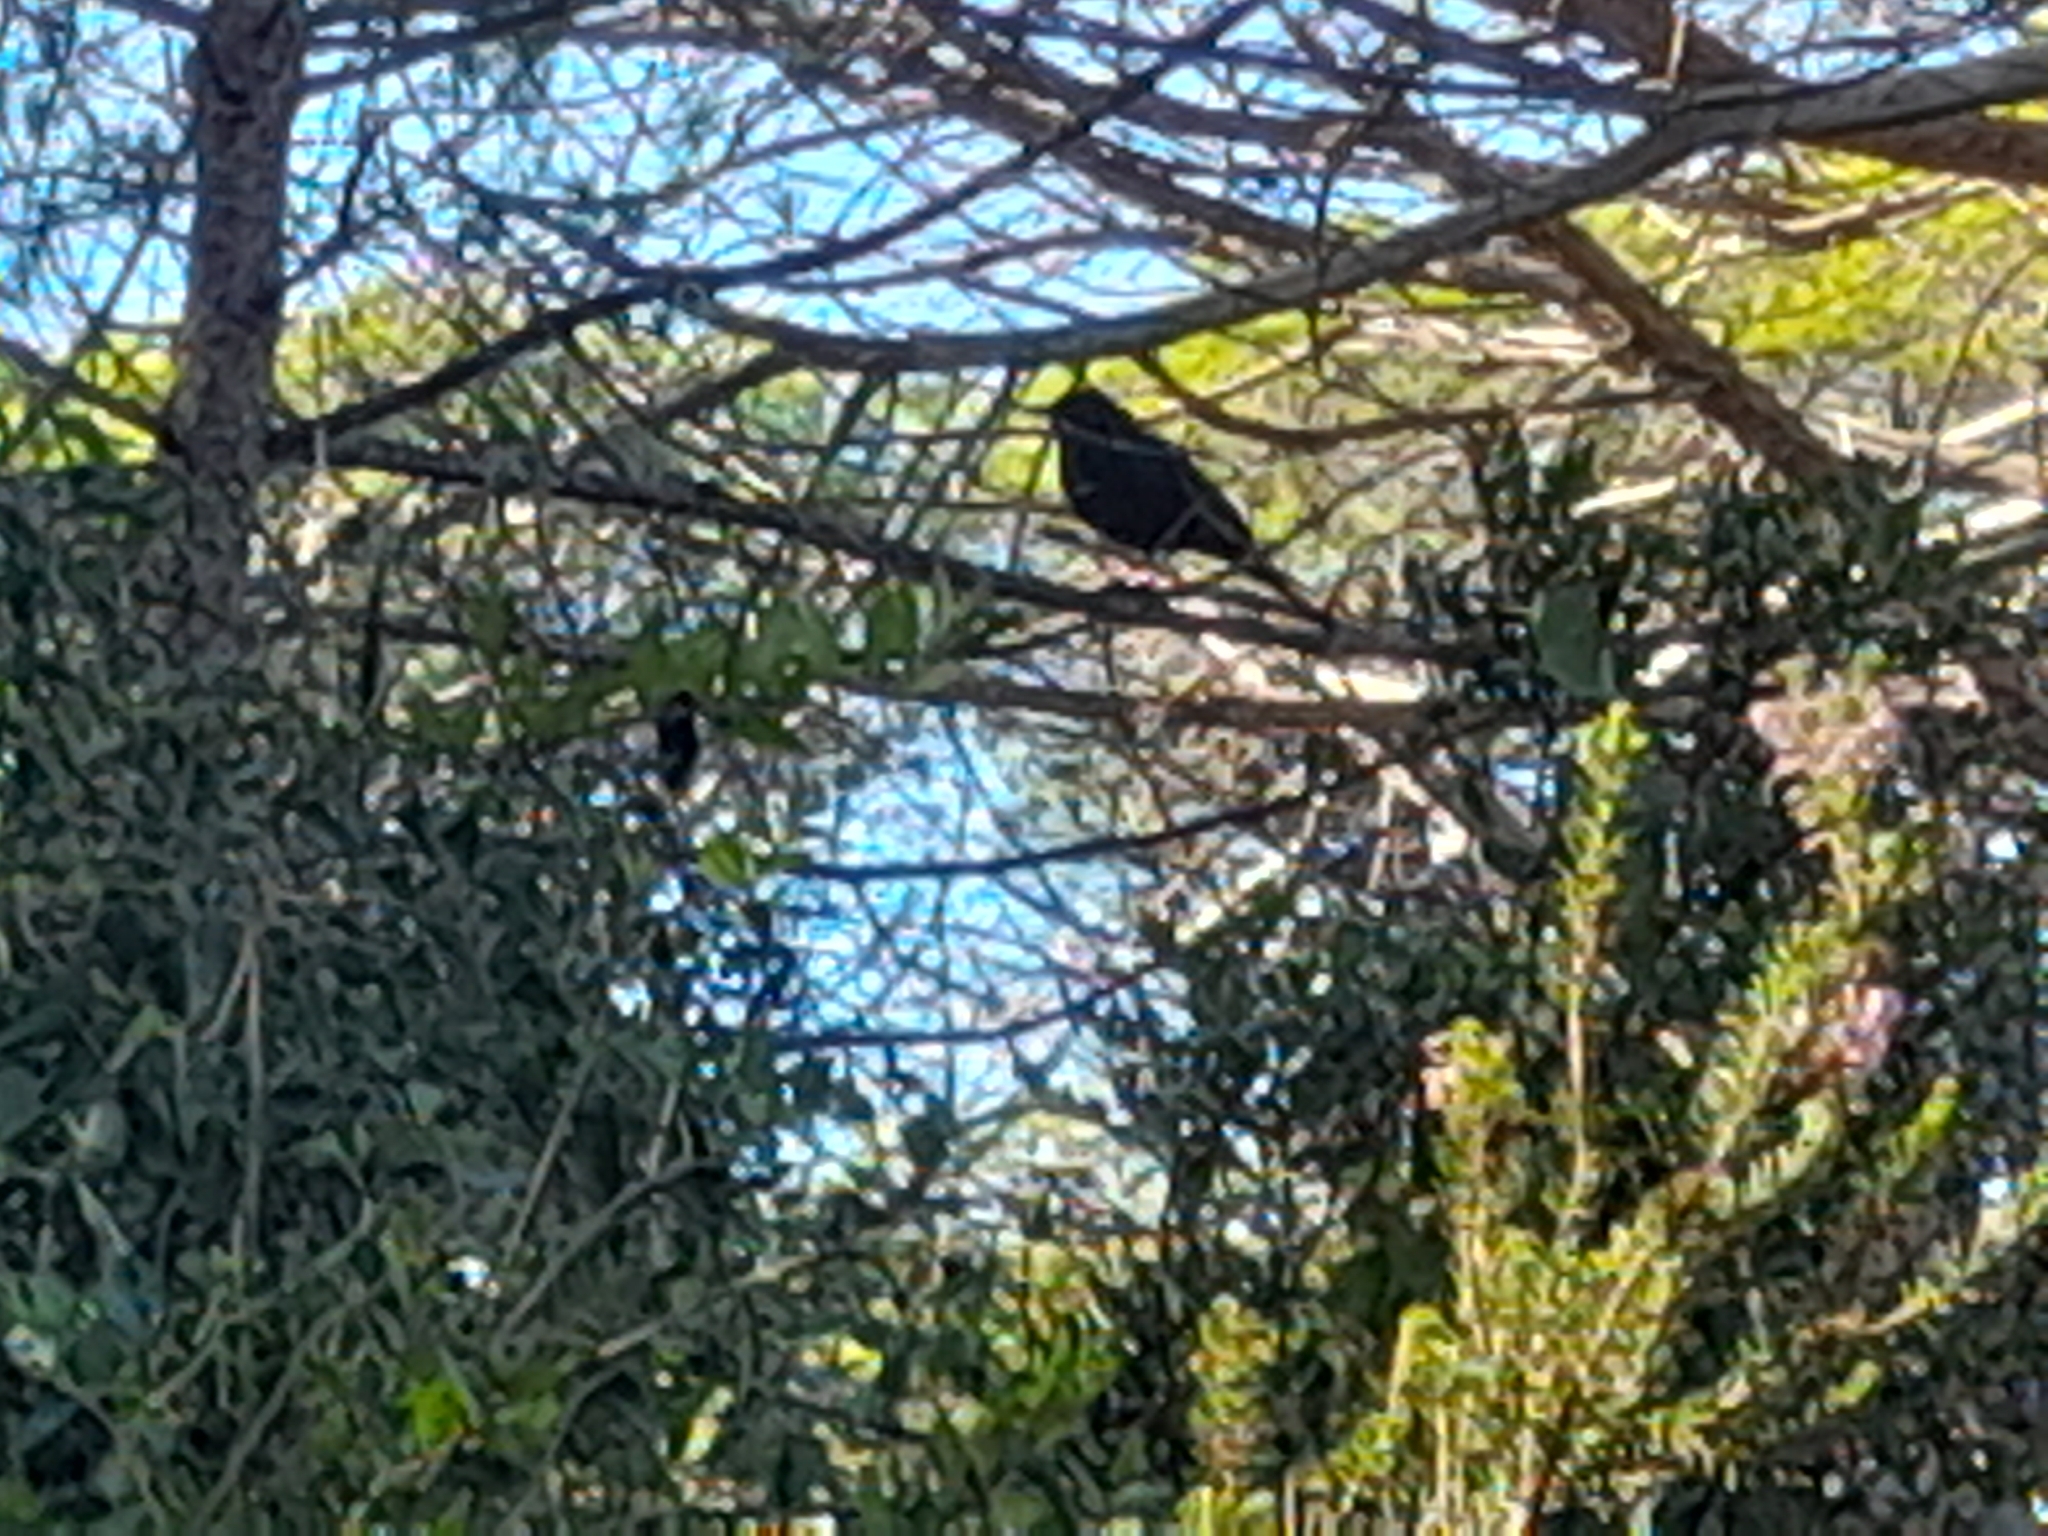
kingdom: Animalia
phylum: Chordata
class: Aves
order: Passeriformes
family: Turdidae
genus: Turdus
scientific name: Turdus merula
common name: Common blackbird
